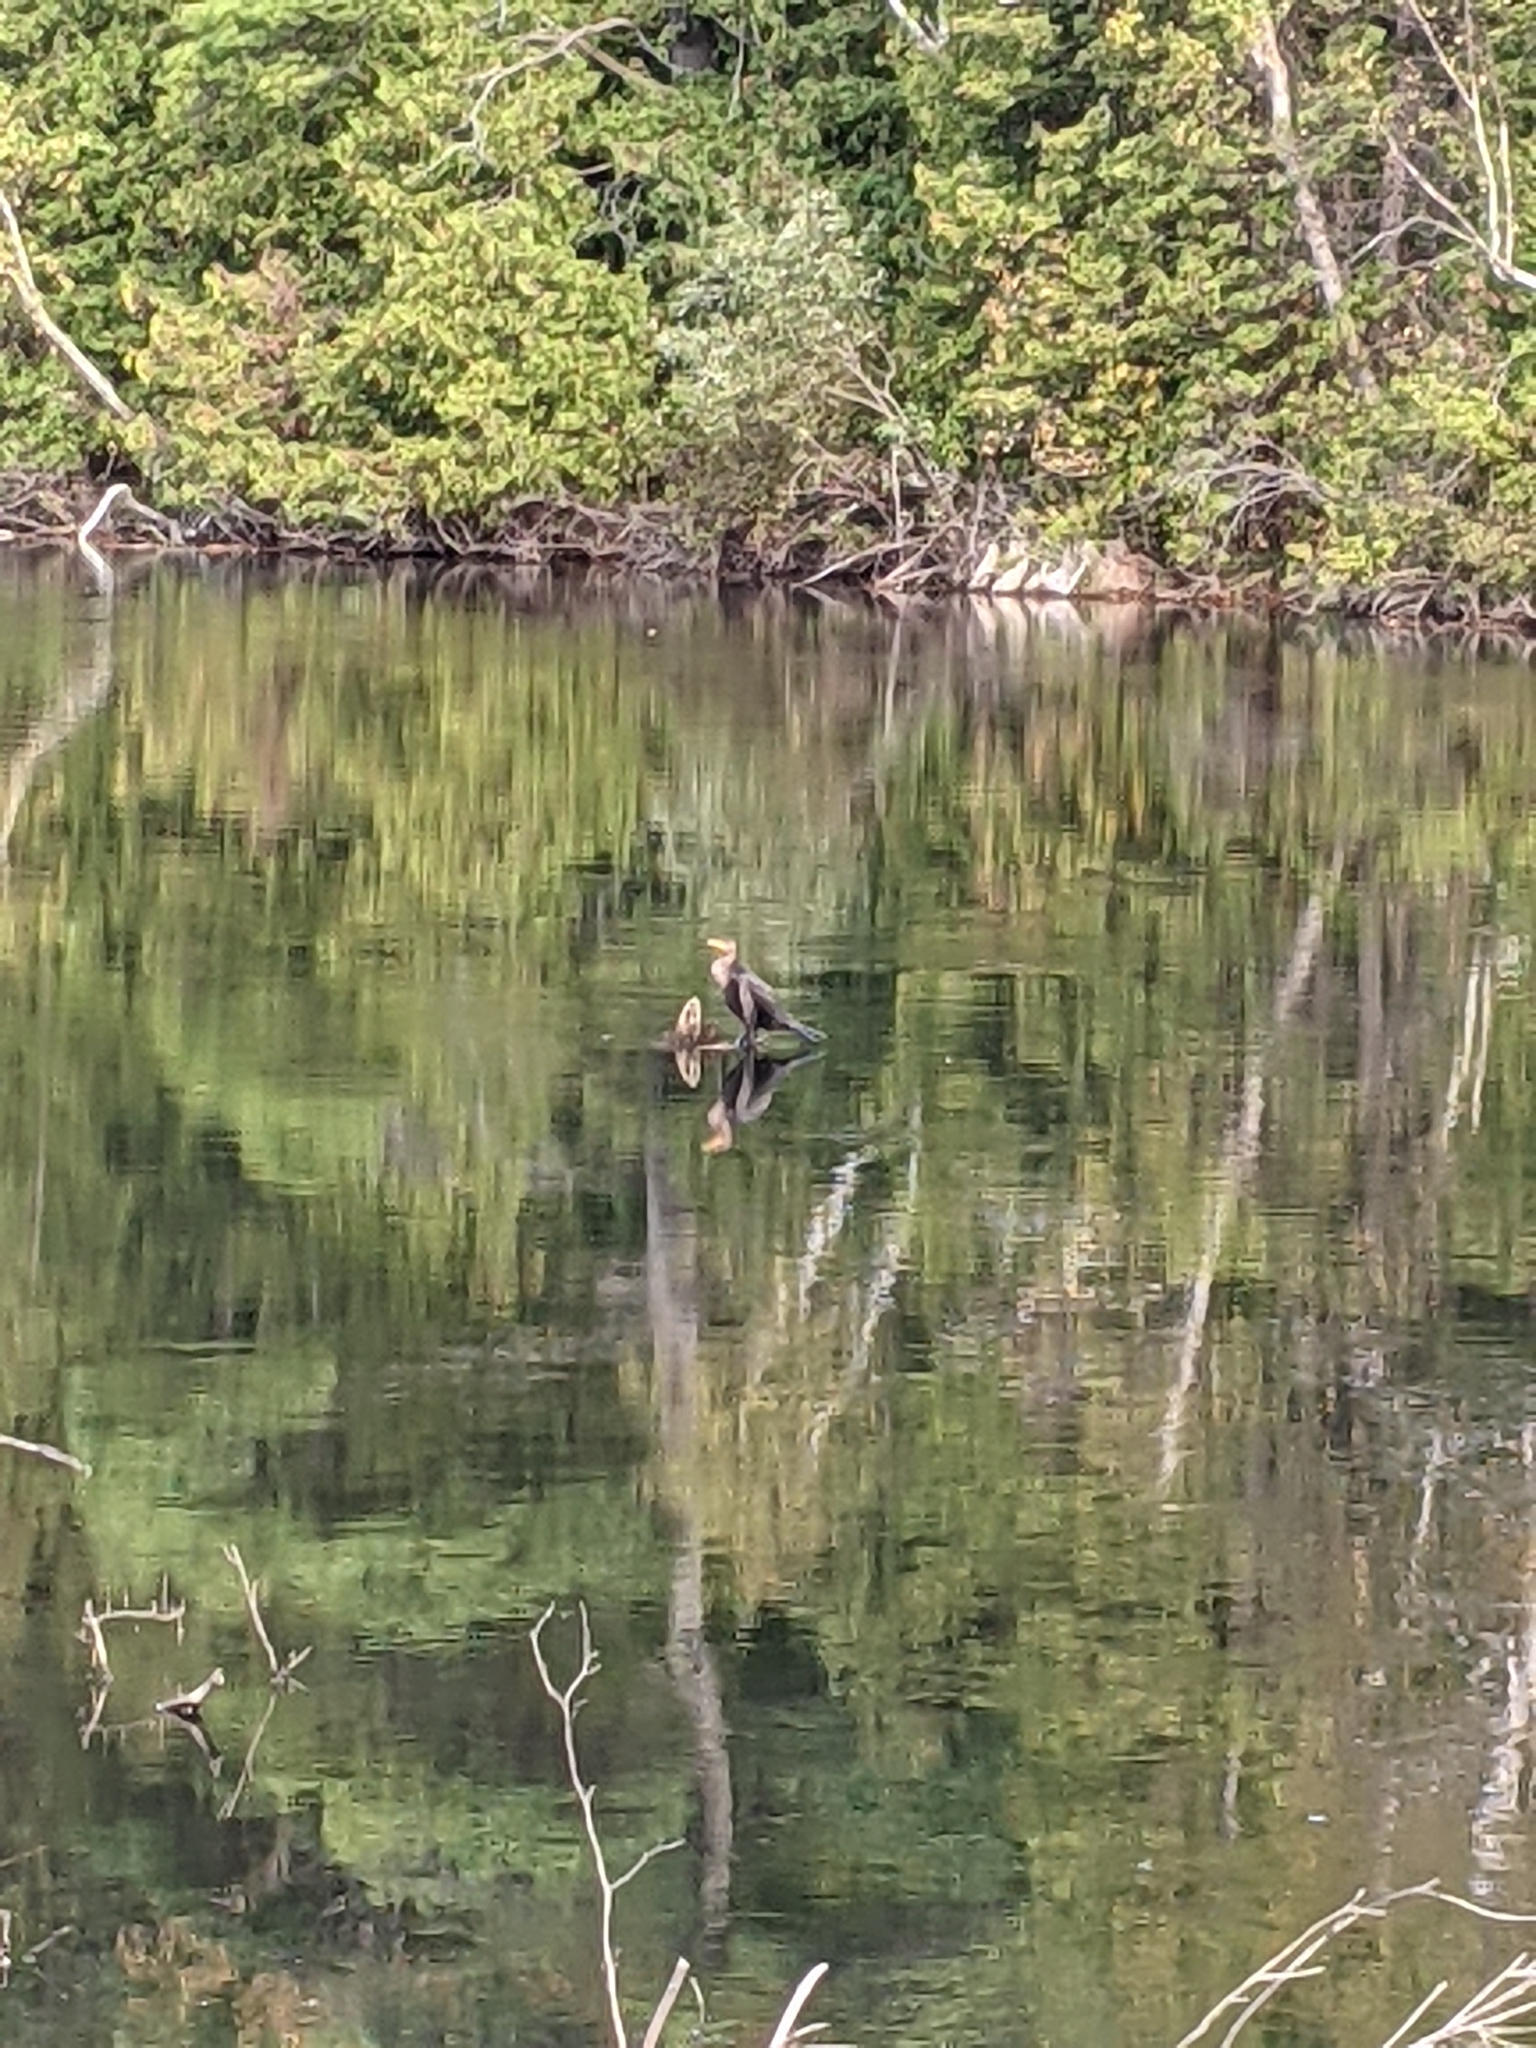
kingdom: Animalia
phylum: Chordata
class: Aves
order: Suliformes
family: Phalacrocoracidae
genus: Phalacrocorax
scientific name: Phalacrocorax auritus
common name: Double-crested cormorant
